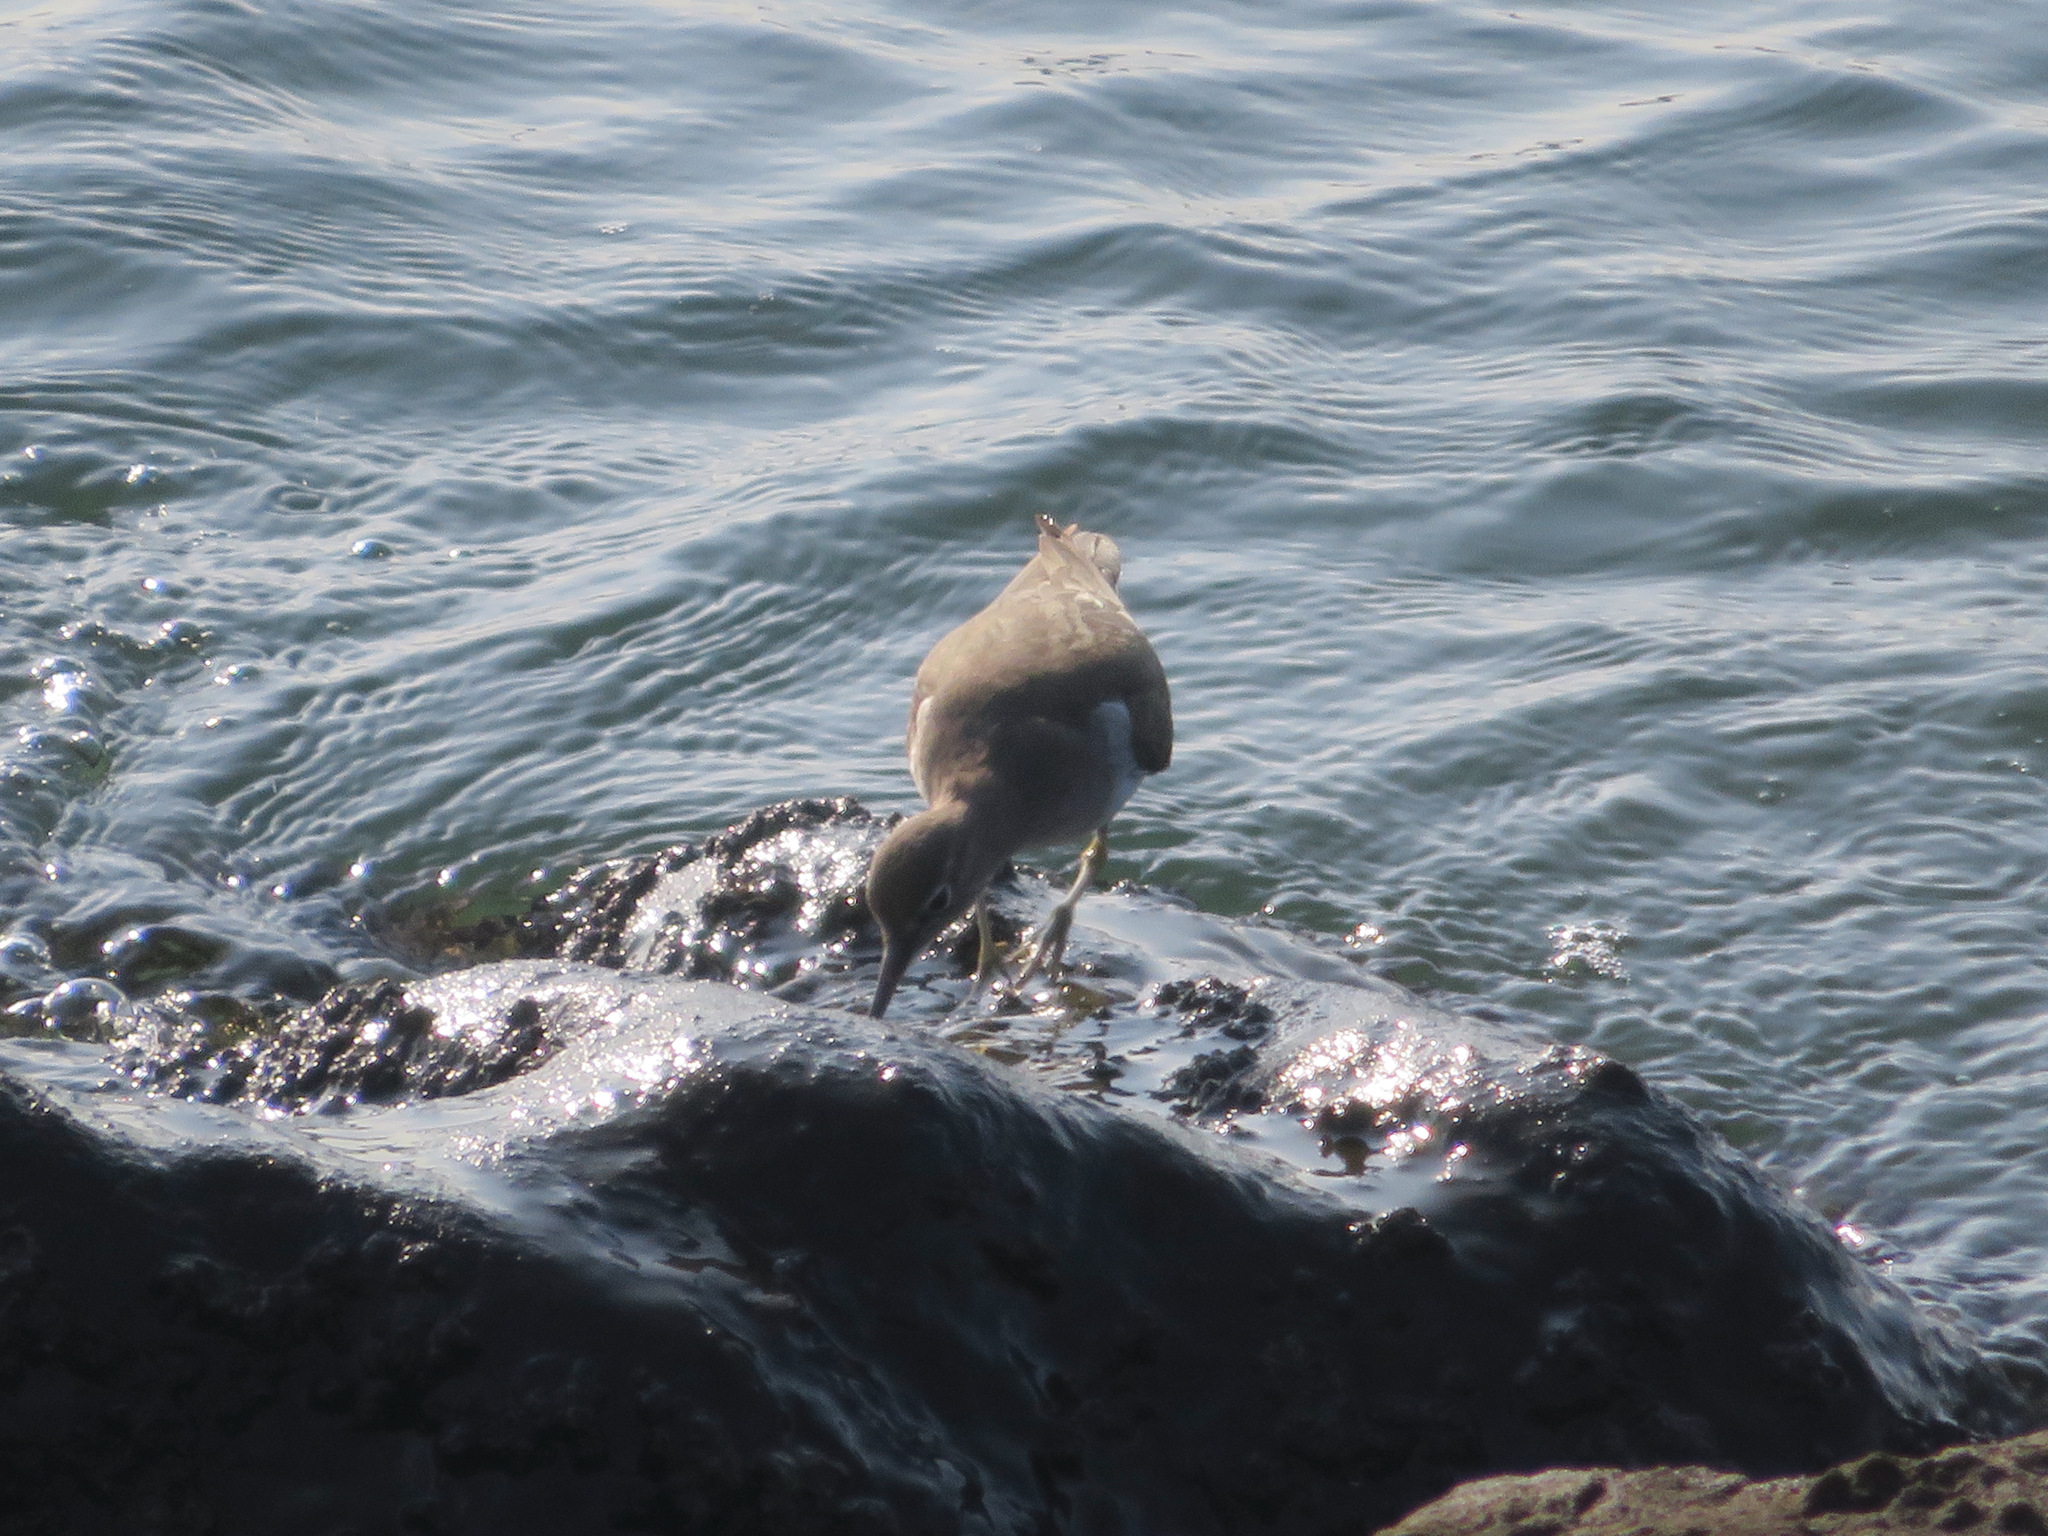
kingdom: Animalia
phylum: Chordata
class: Aves
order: Charadriiformes
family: Scolopacidae
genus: Actitis
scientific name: Actitis hypoleucos
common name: Common sandpiper
